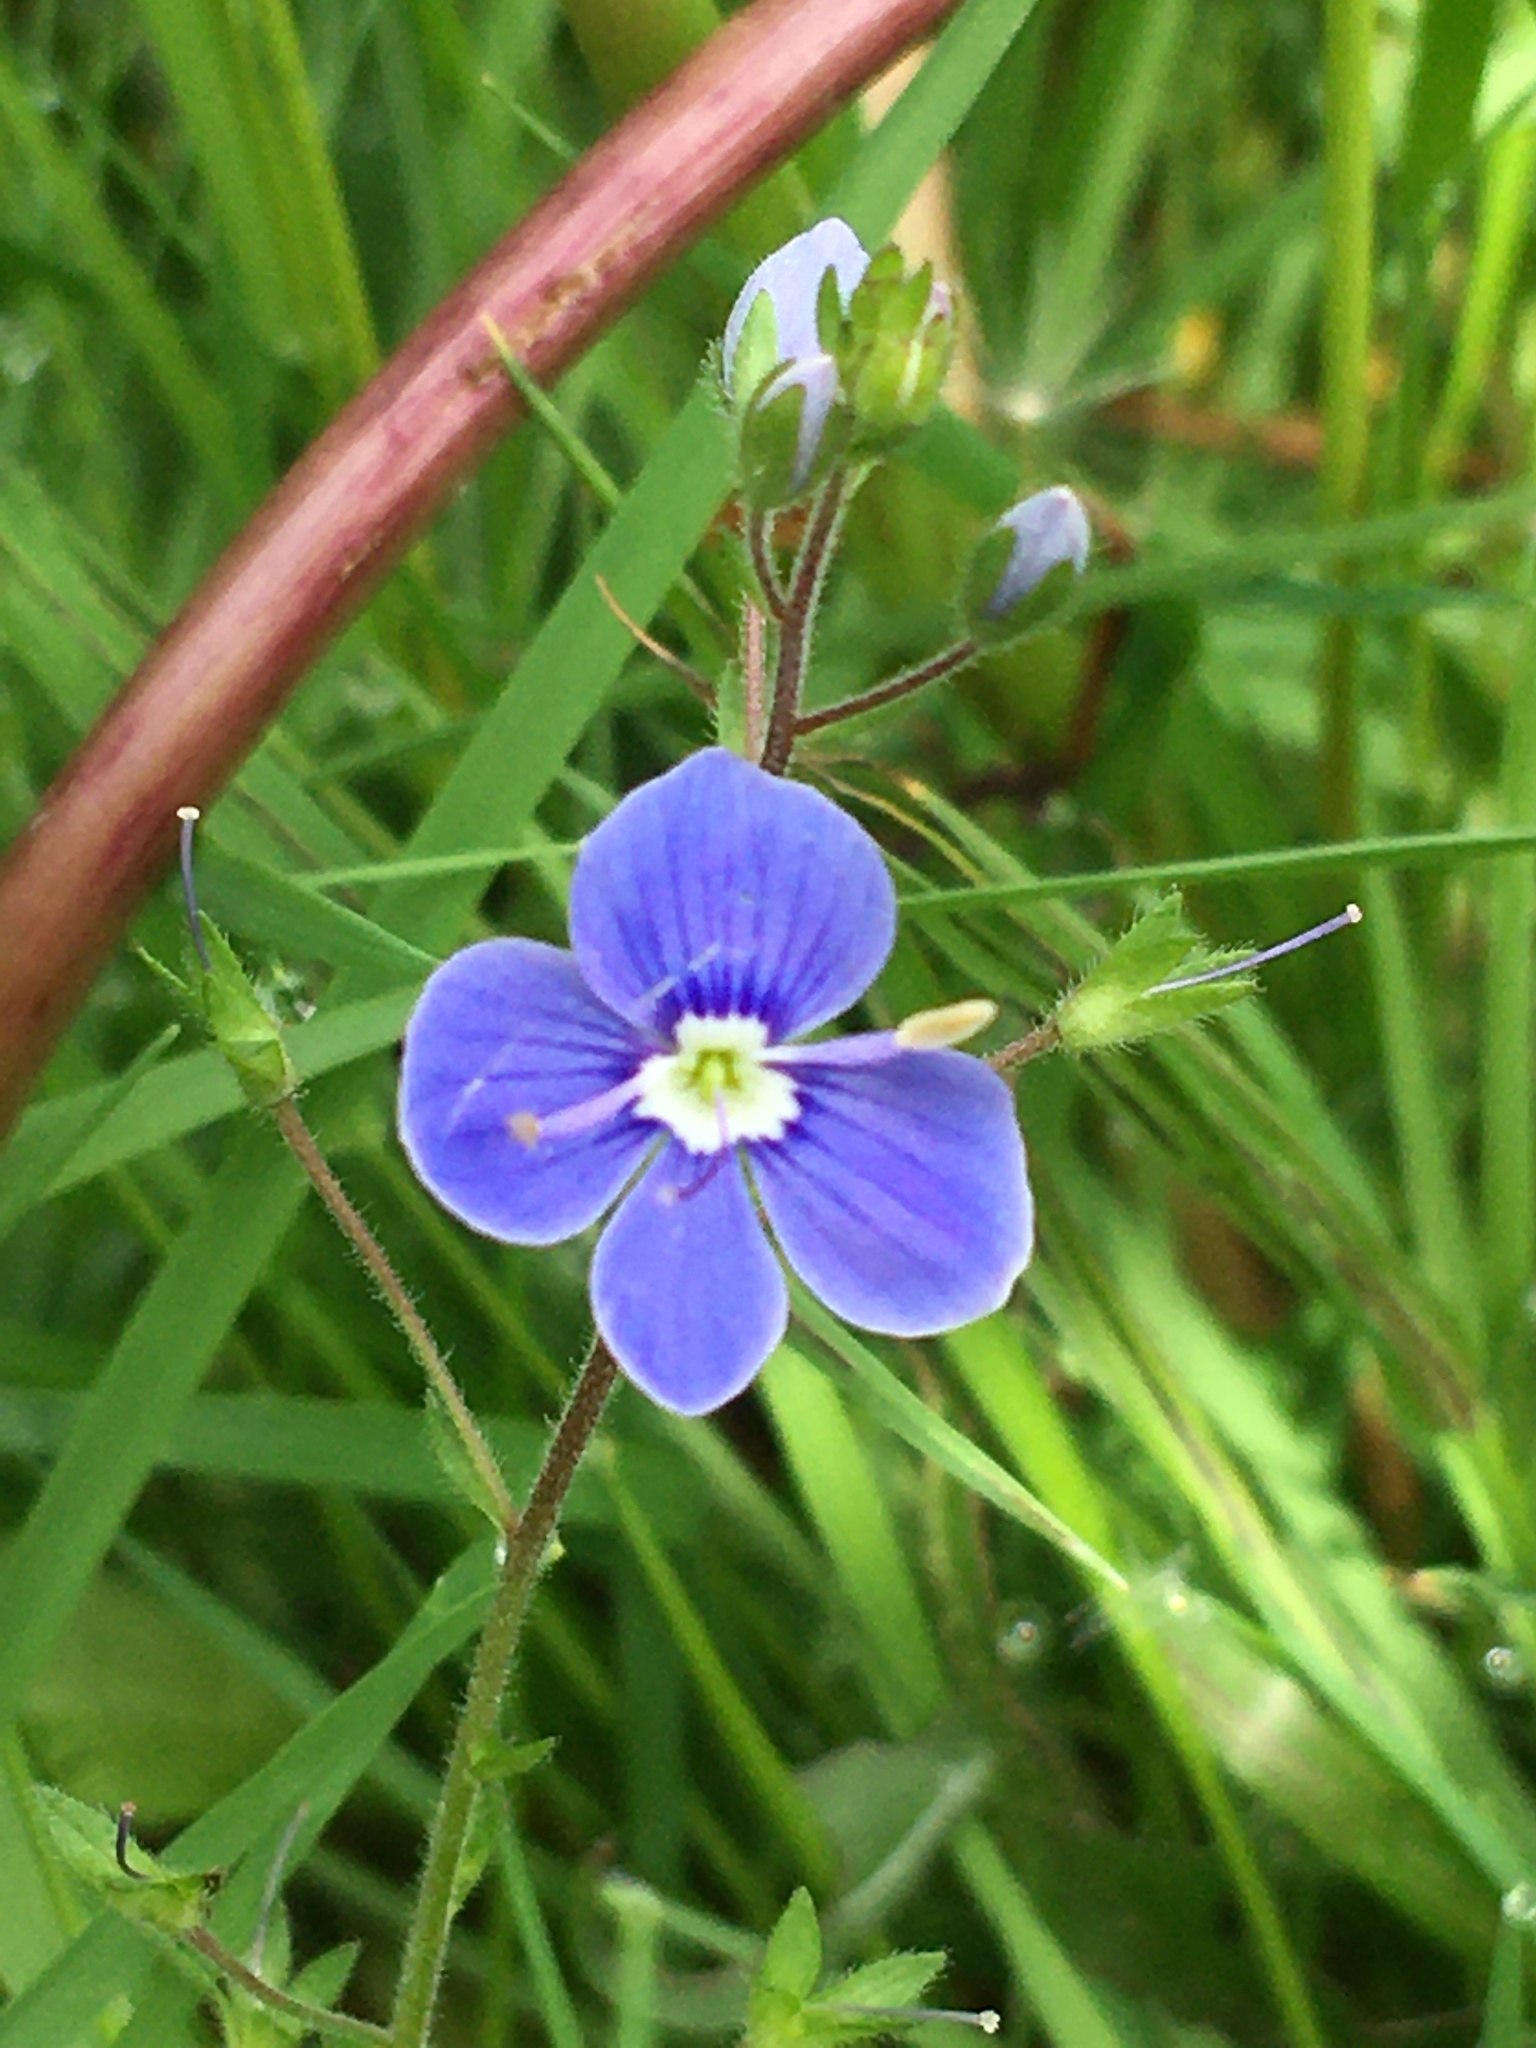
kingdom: Plantae
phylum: Tracheophyta
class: Magnoliopsida
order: Lamiales
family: Plantaginaceae
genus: Veronica
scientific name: Veronica chamaedrys
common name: Germander speedwell
